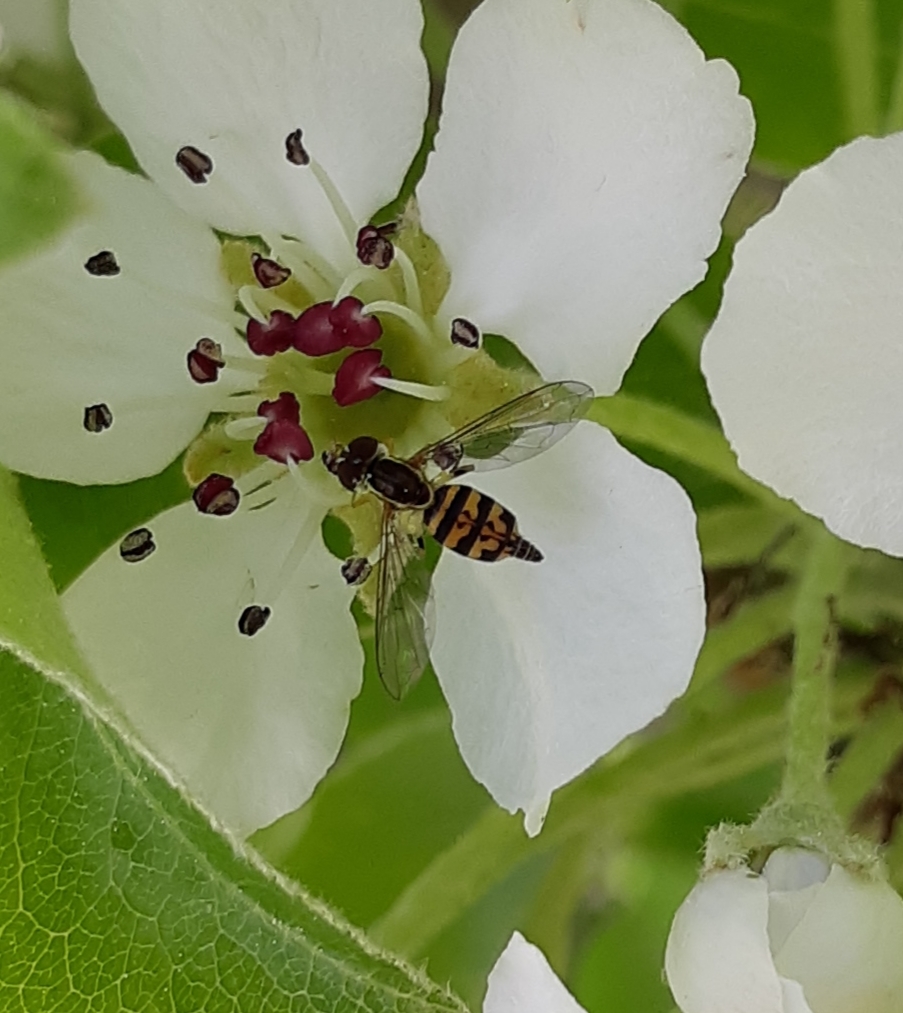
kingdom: Animalia
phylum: Arthropoda
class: Insecta
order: Diptera
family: Syrphidae
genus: Toxomerus
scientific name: Toxomerus geminatus
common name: Eastern calligrapher
